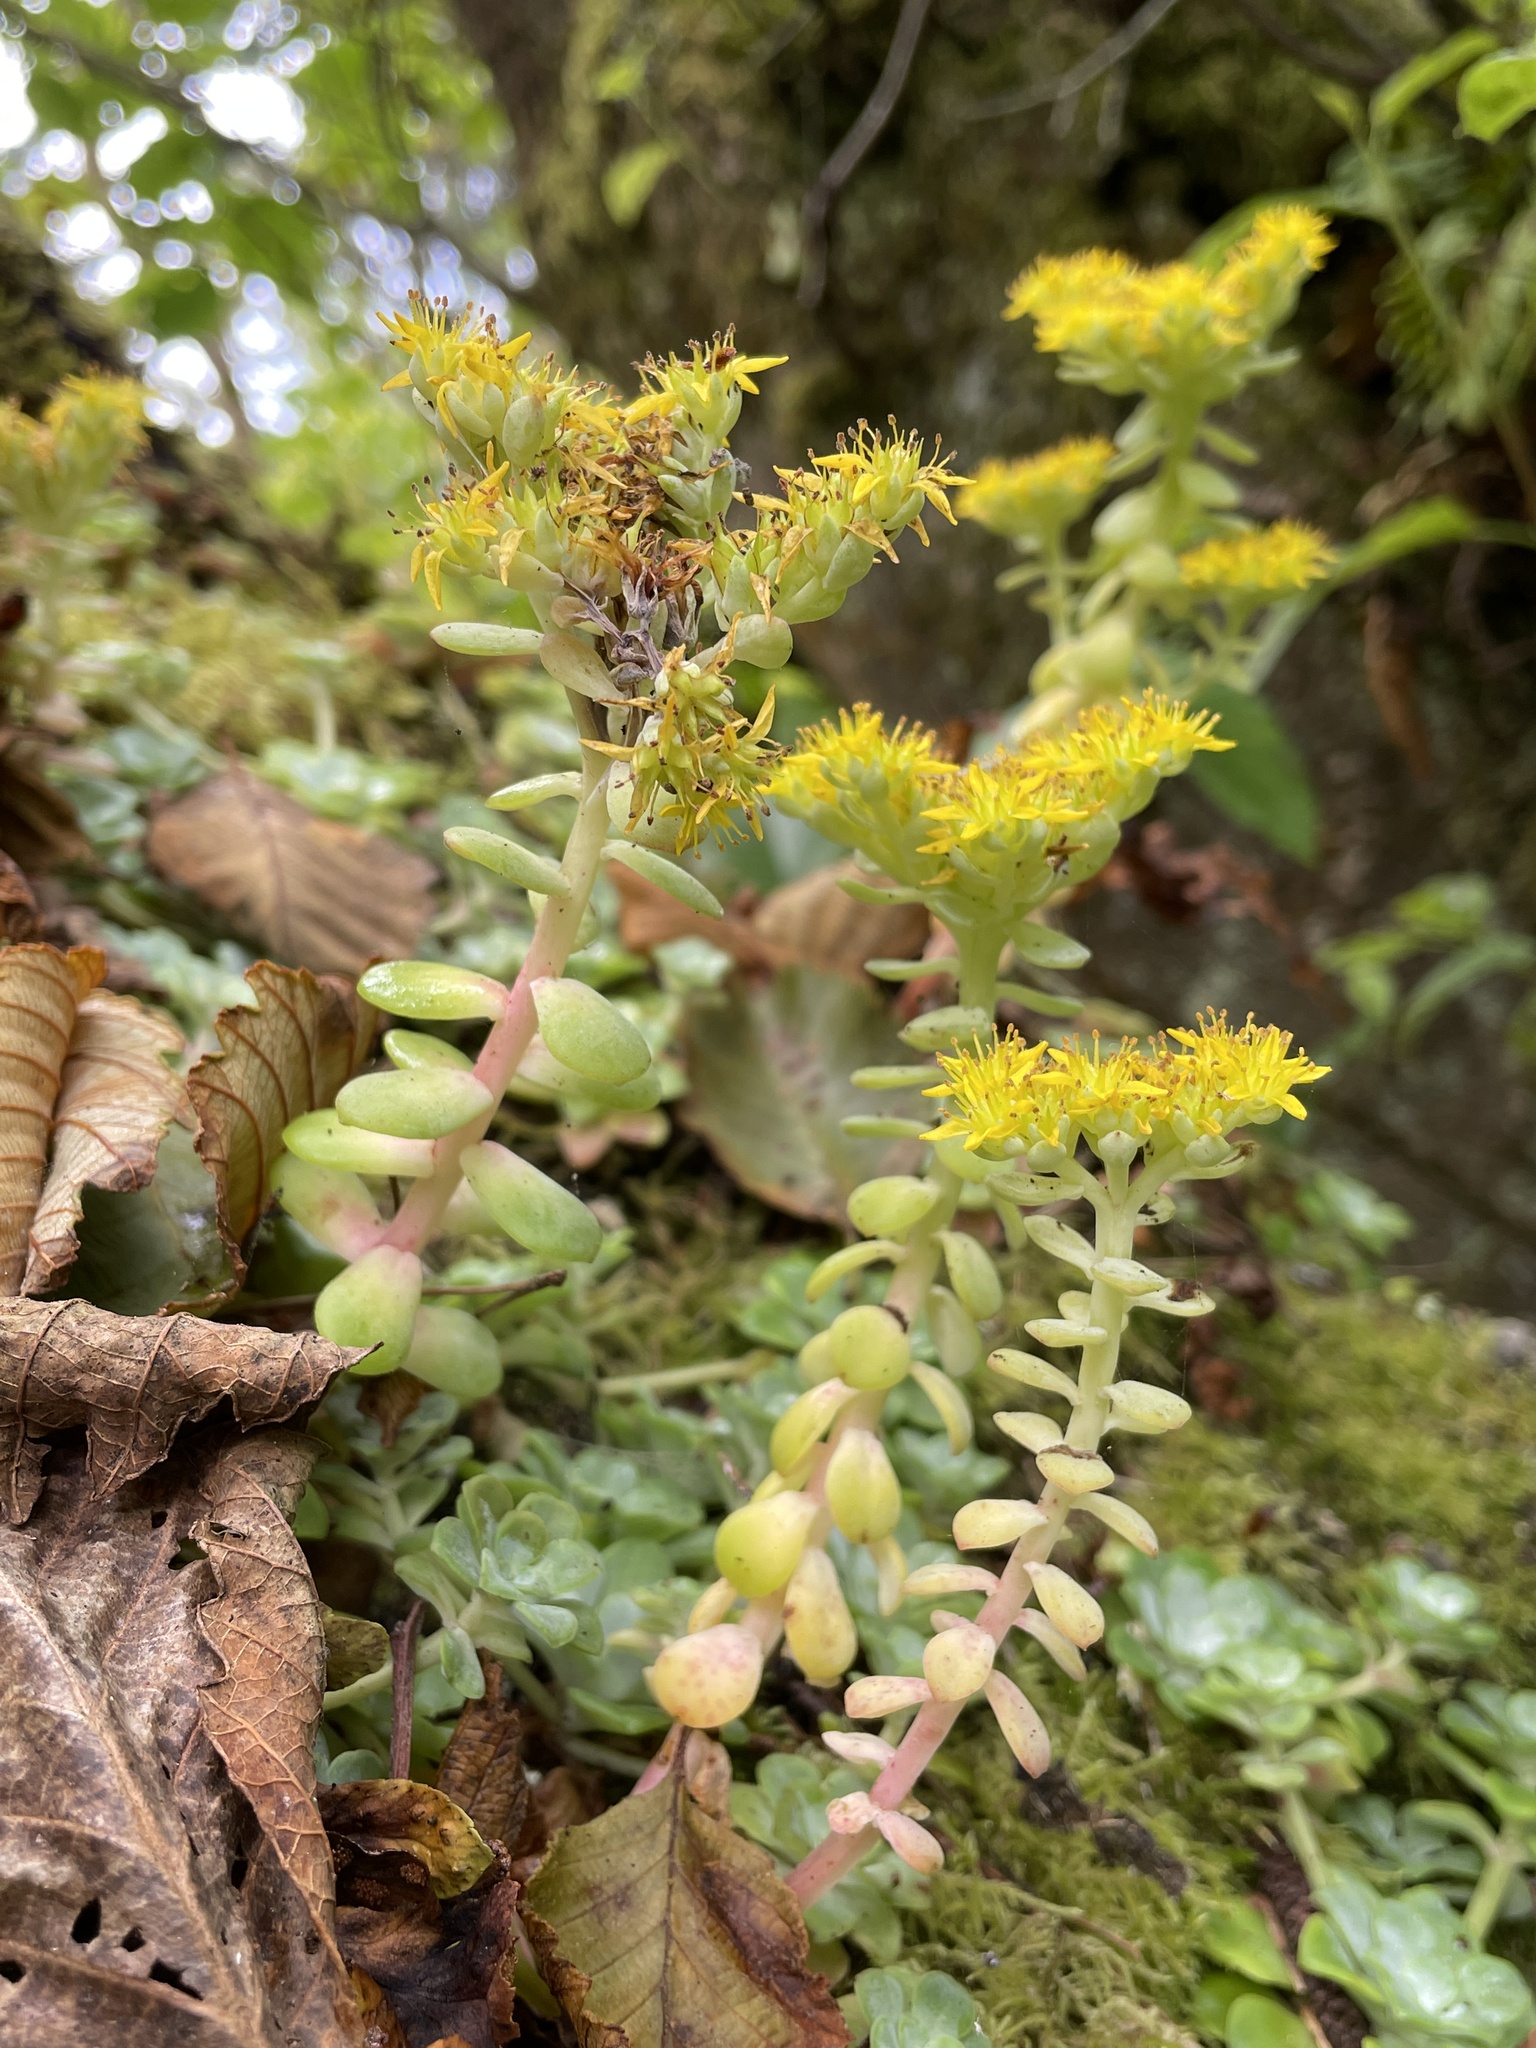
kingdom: Plantae
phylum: Tracheophyta
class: Magnoliopsida
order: Saxifragales
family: Crassulaceae
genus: Sedum
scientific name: Sedum spathulifolium
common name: Colorado stonecrop
